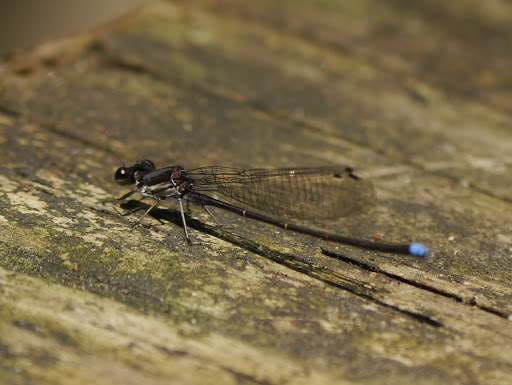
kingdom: Animalia
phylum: Arthropoda
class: Insecta
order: Odonata
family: Coenagrionidae
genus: Argia
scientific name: Argia tibialis
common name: Blue-tipped dancer
